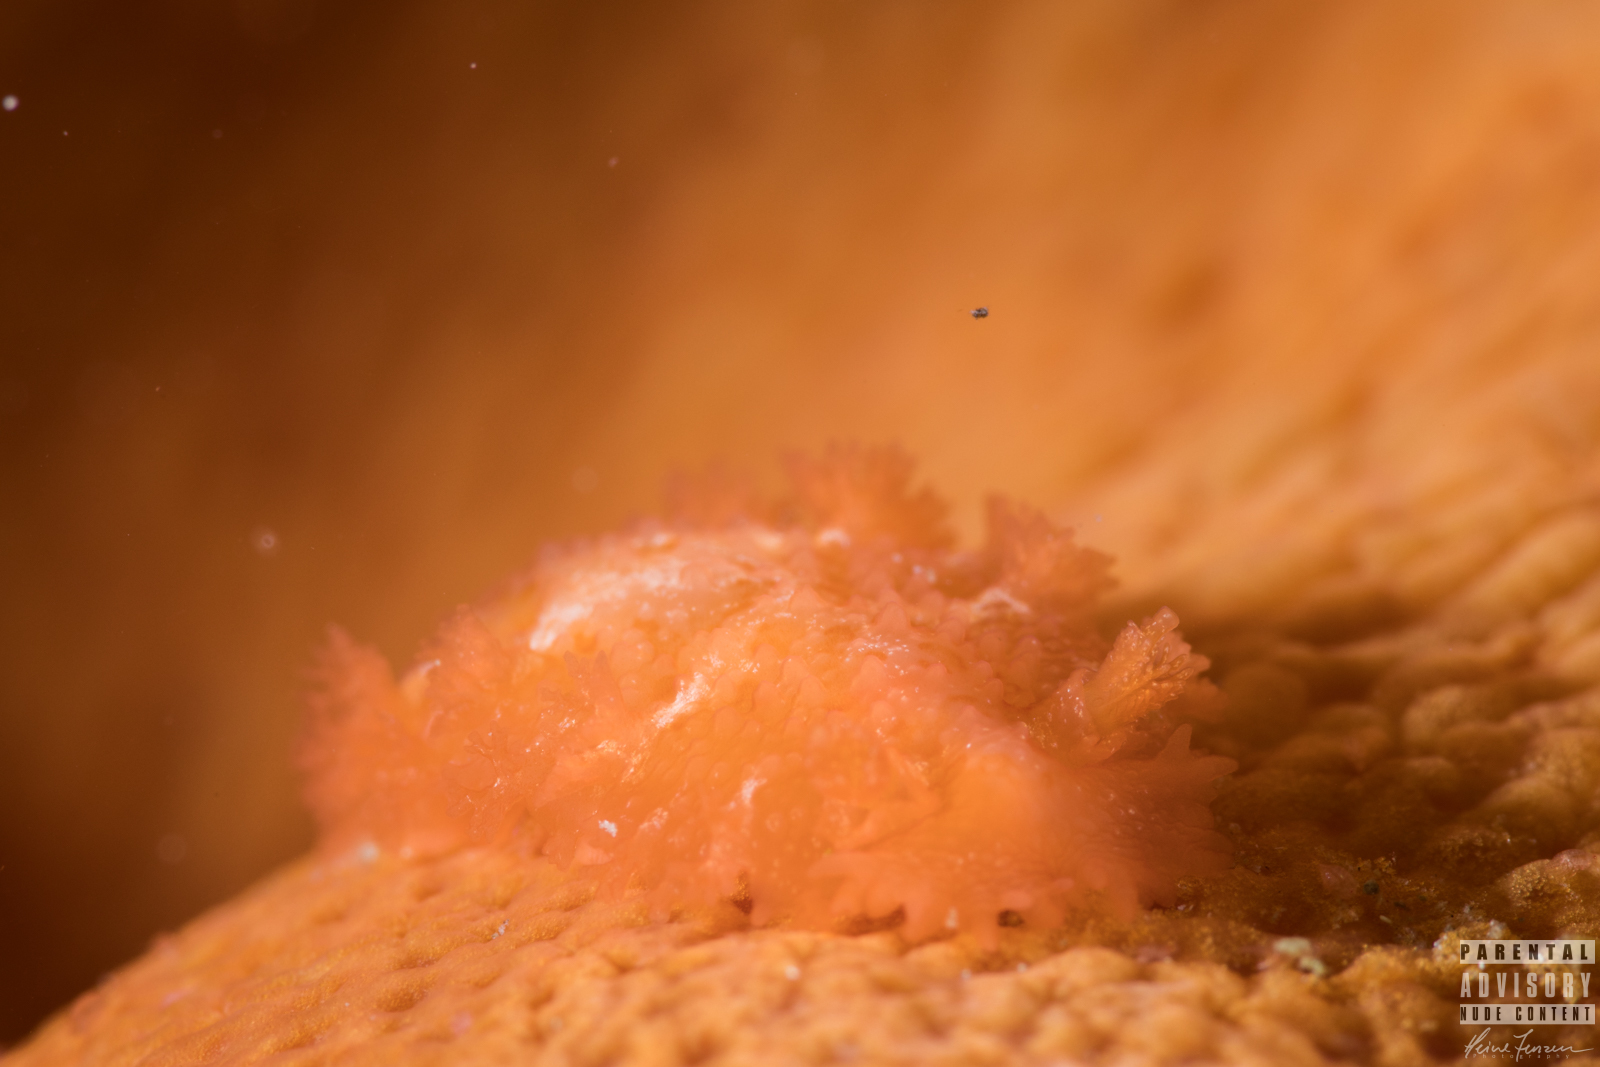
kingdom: Animalia
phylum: Mollusca
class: Gastropoda
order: Nudibranchia
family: Tritoniidae
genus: Tritonia
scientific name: Tritonia hombergii
